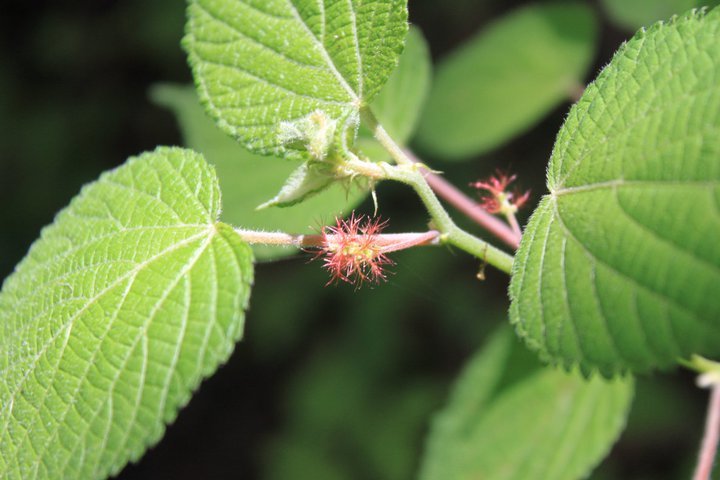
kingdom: Plantae
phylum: Tracheophyta
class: Magnoliopsida
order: Malpighiales
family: Euphorbiaceae
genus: Acalypha
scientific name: Acalypha phleoides
